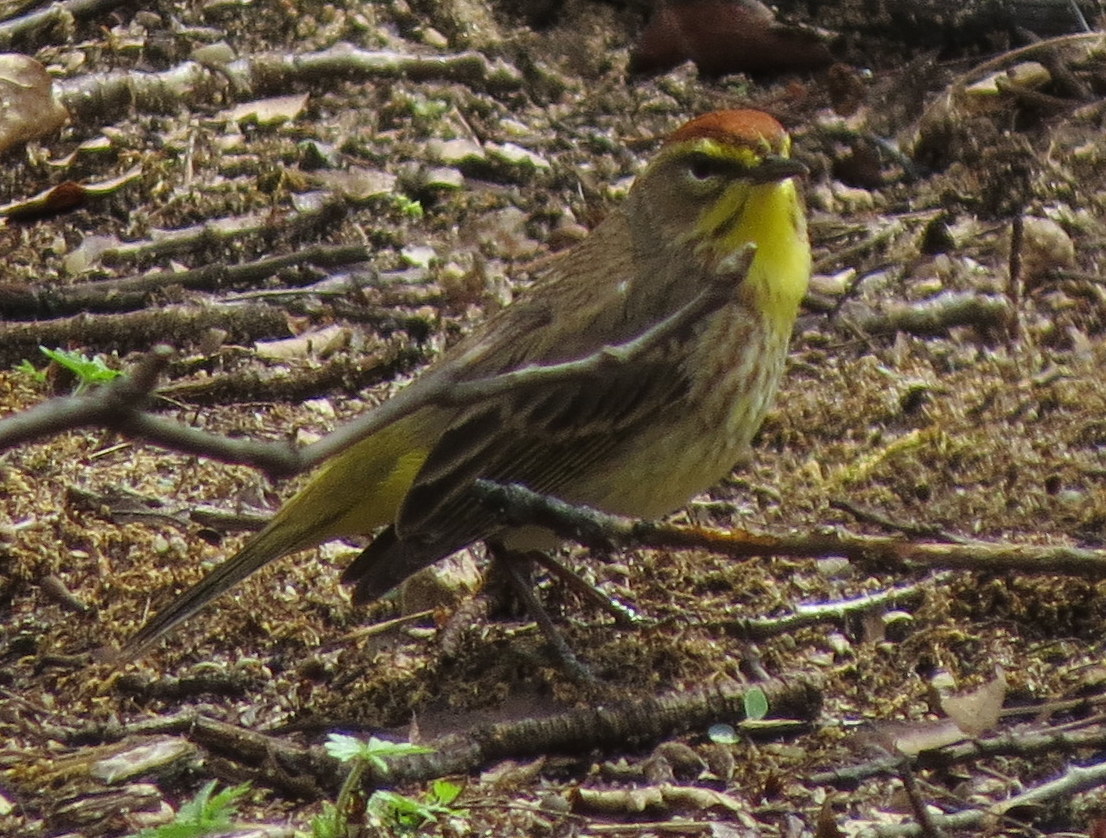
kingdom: Animalia
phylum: Chordata
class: Aves
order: Passeriformes
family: Parulidae
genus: Setophaga
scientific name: Setophaga palmarum
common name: Palm warbler
